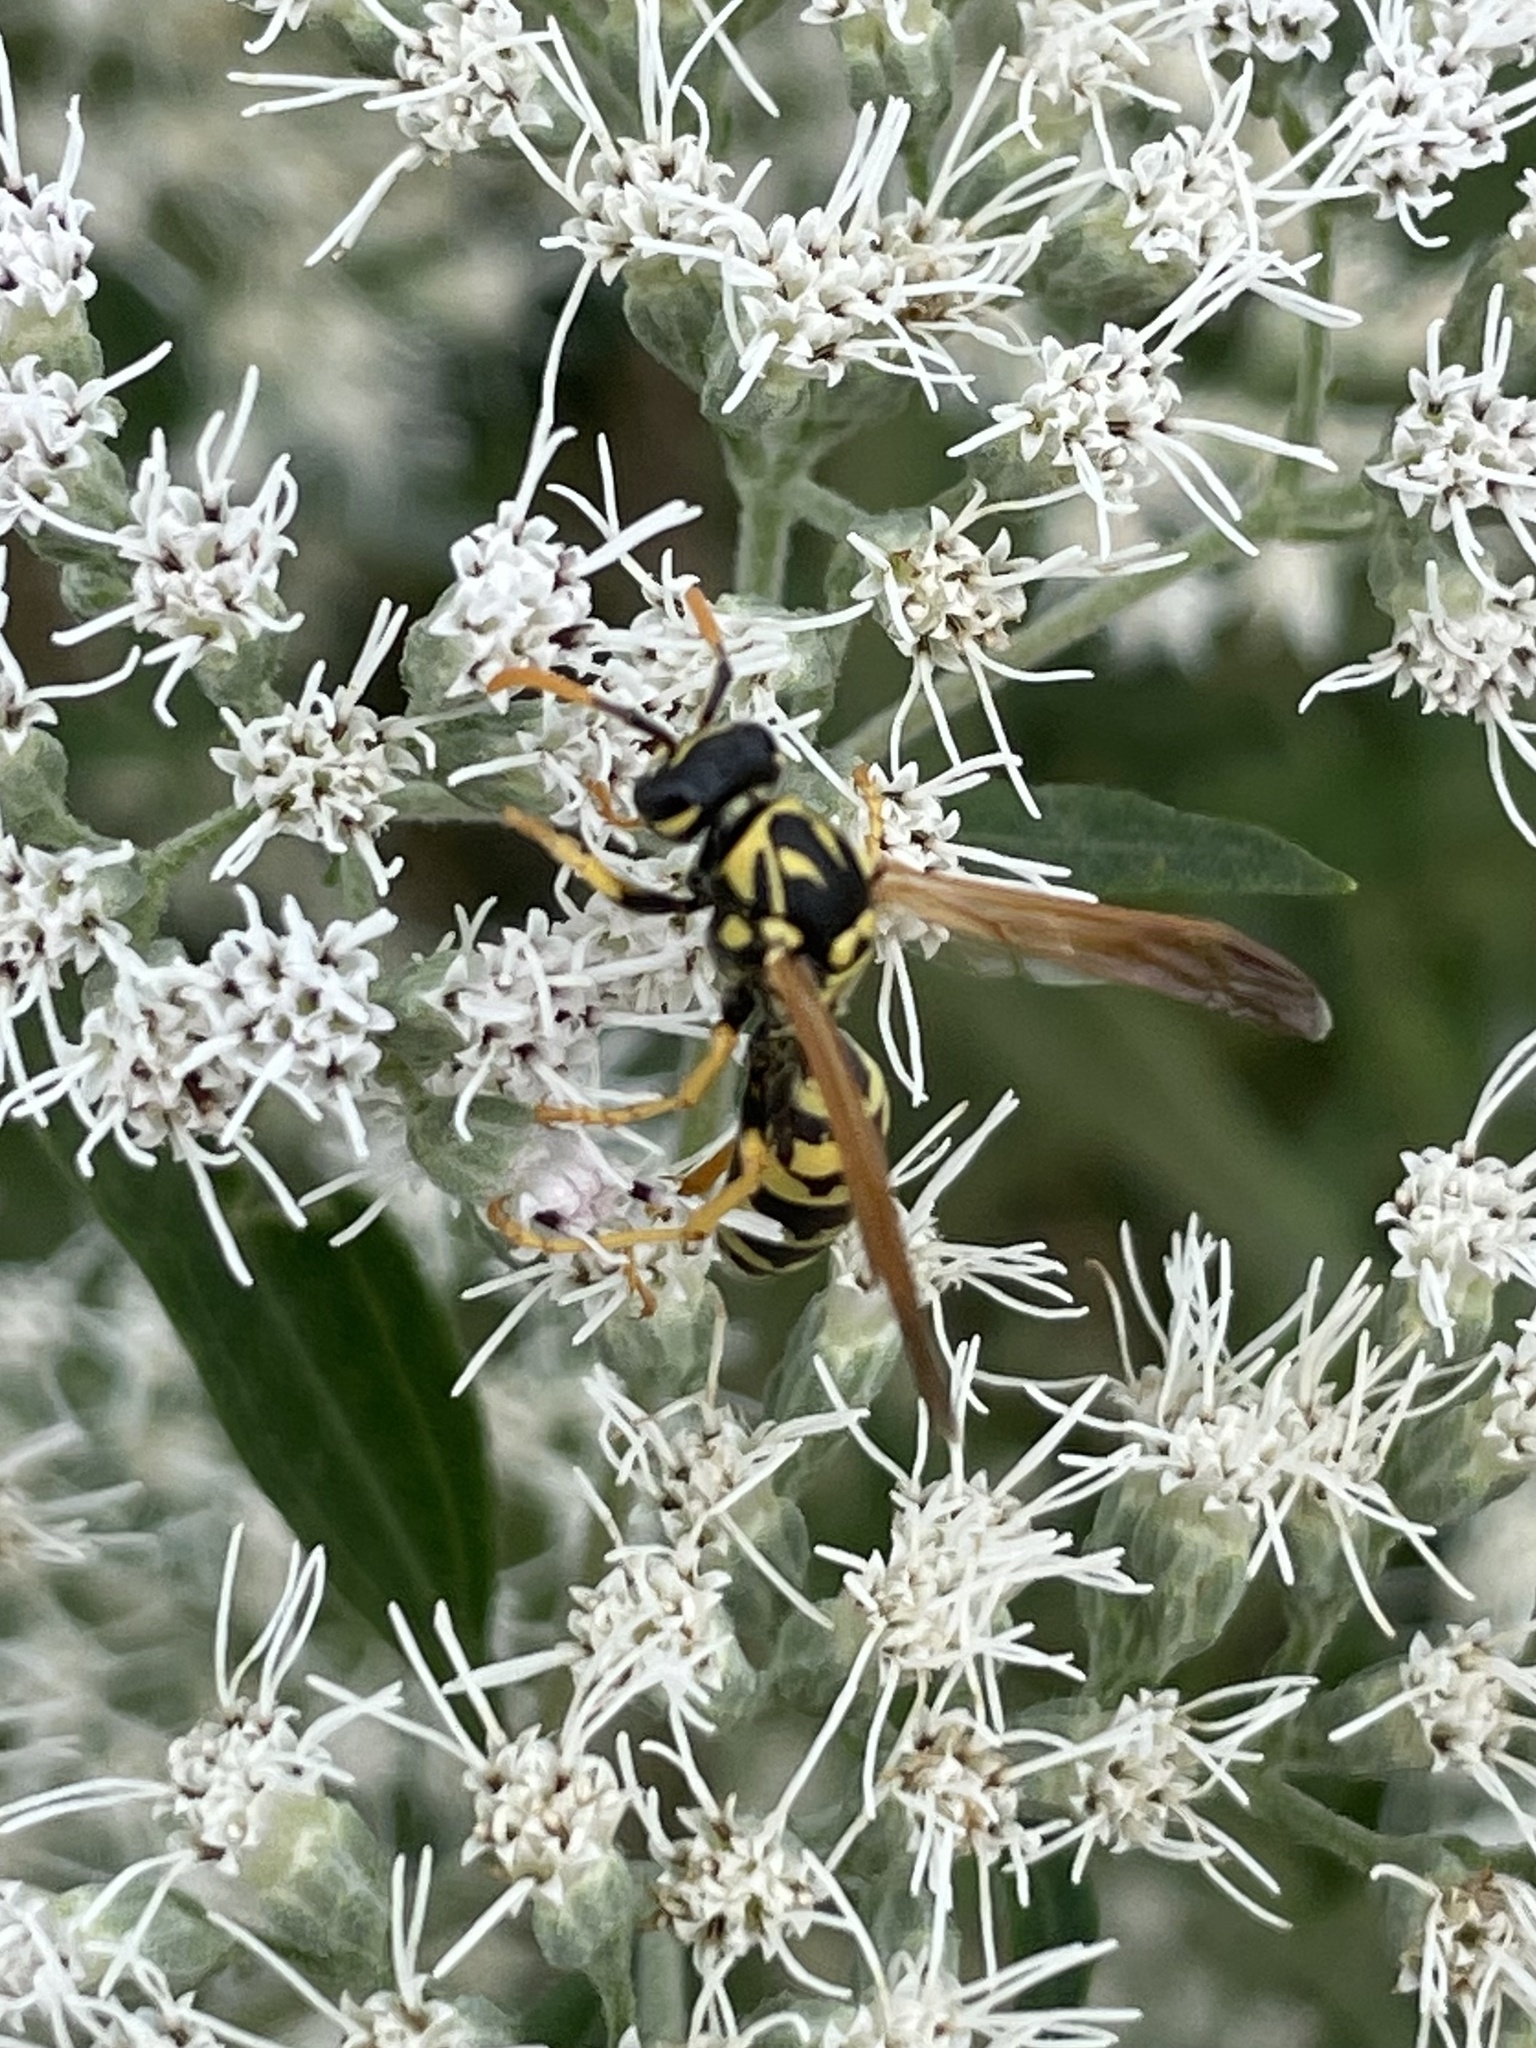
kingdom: Animalia
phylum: Arthropoda
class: Insecta
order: Hymenoptera
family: Eumenidae
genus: Polistes
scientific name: Polistes dominula
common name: Paper wasp
